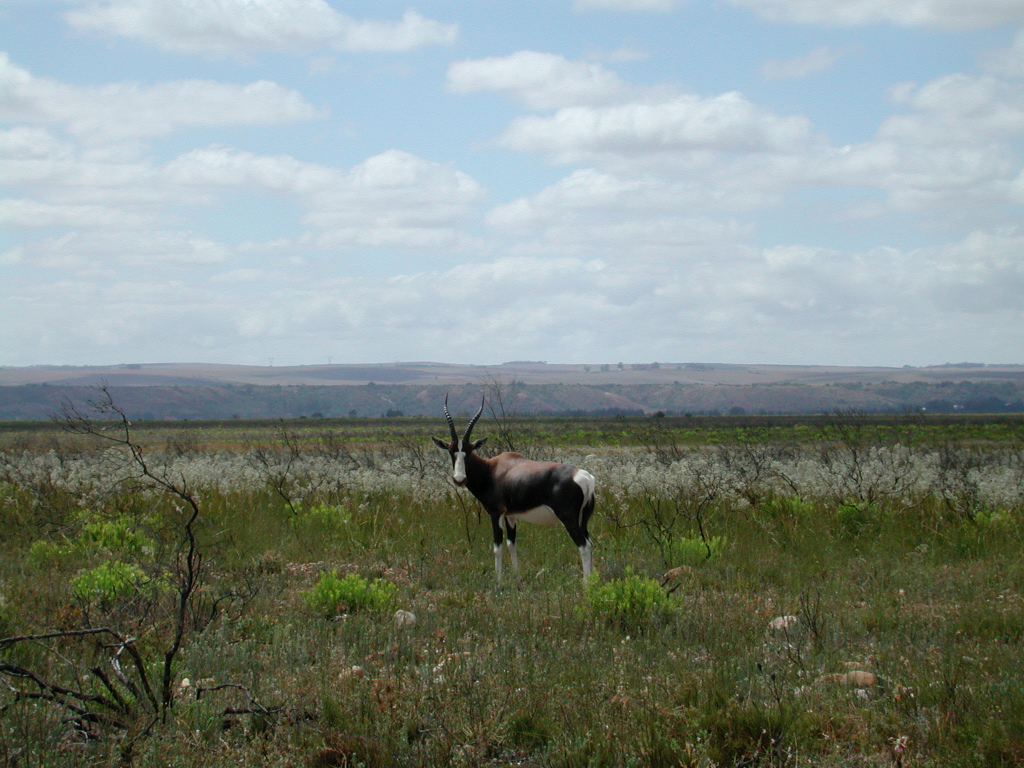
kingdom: Animalia
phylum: Chordata
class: Mammalia
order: Artiodactyla
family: Bovidae
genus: Damaliscus
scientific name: Damaliscus pygargus
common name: Bontebok
